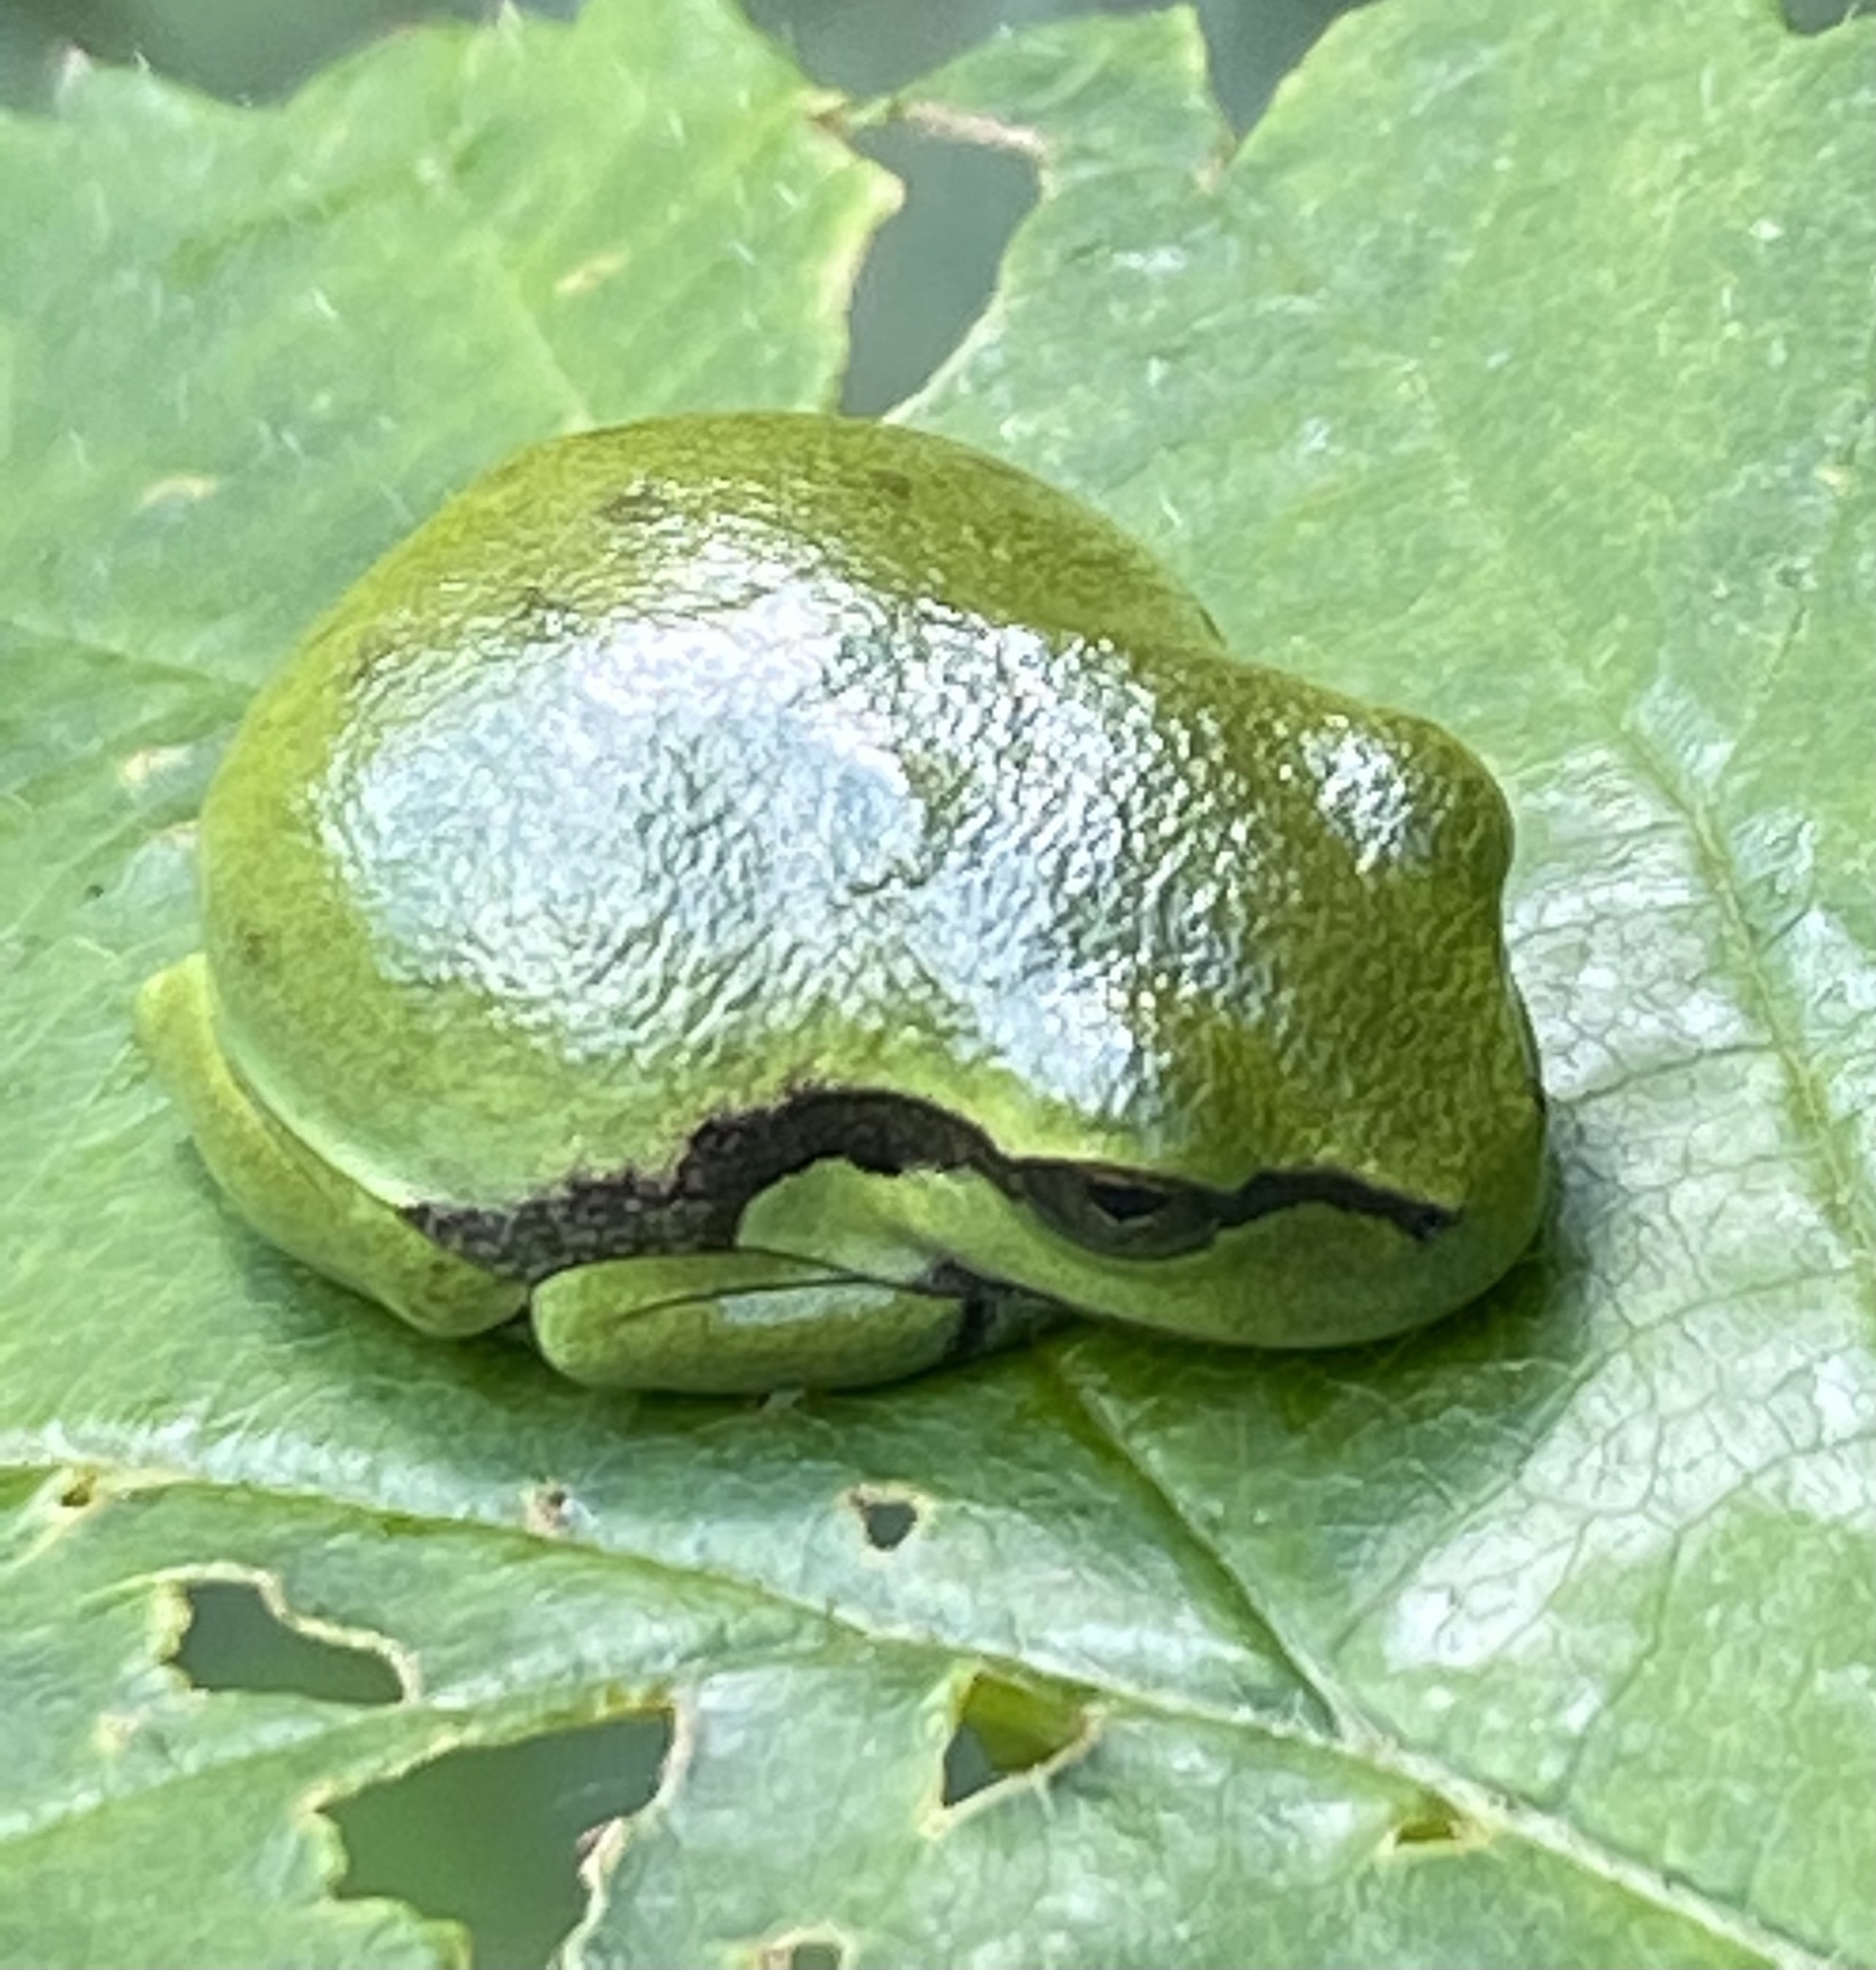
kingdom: Animalia
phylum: Chordata
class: Amphibia
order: Anura
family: Hylidae
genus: Hyla
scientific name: Hyla arborea
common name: Common tree frog
